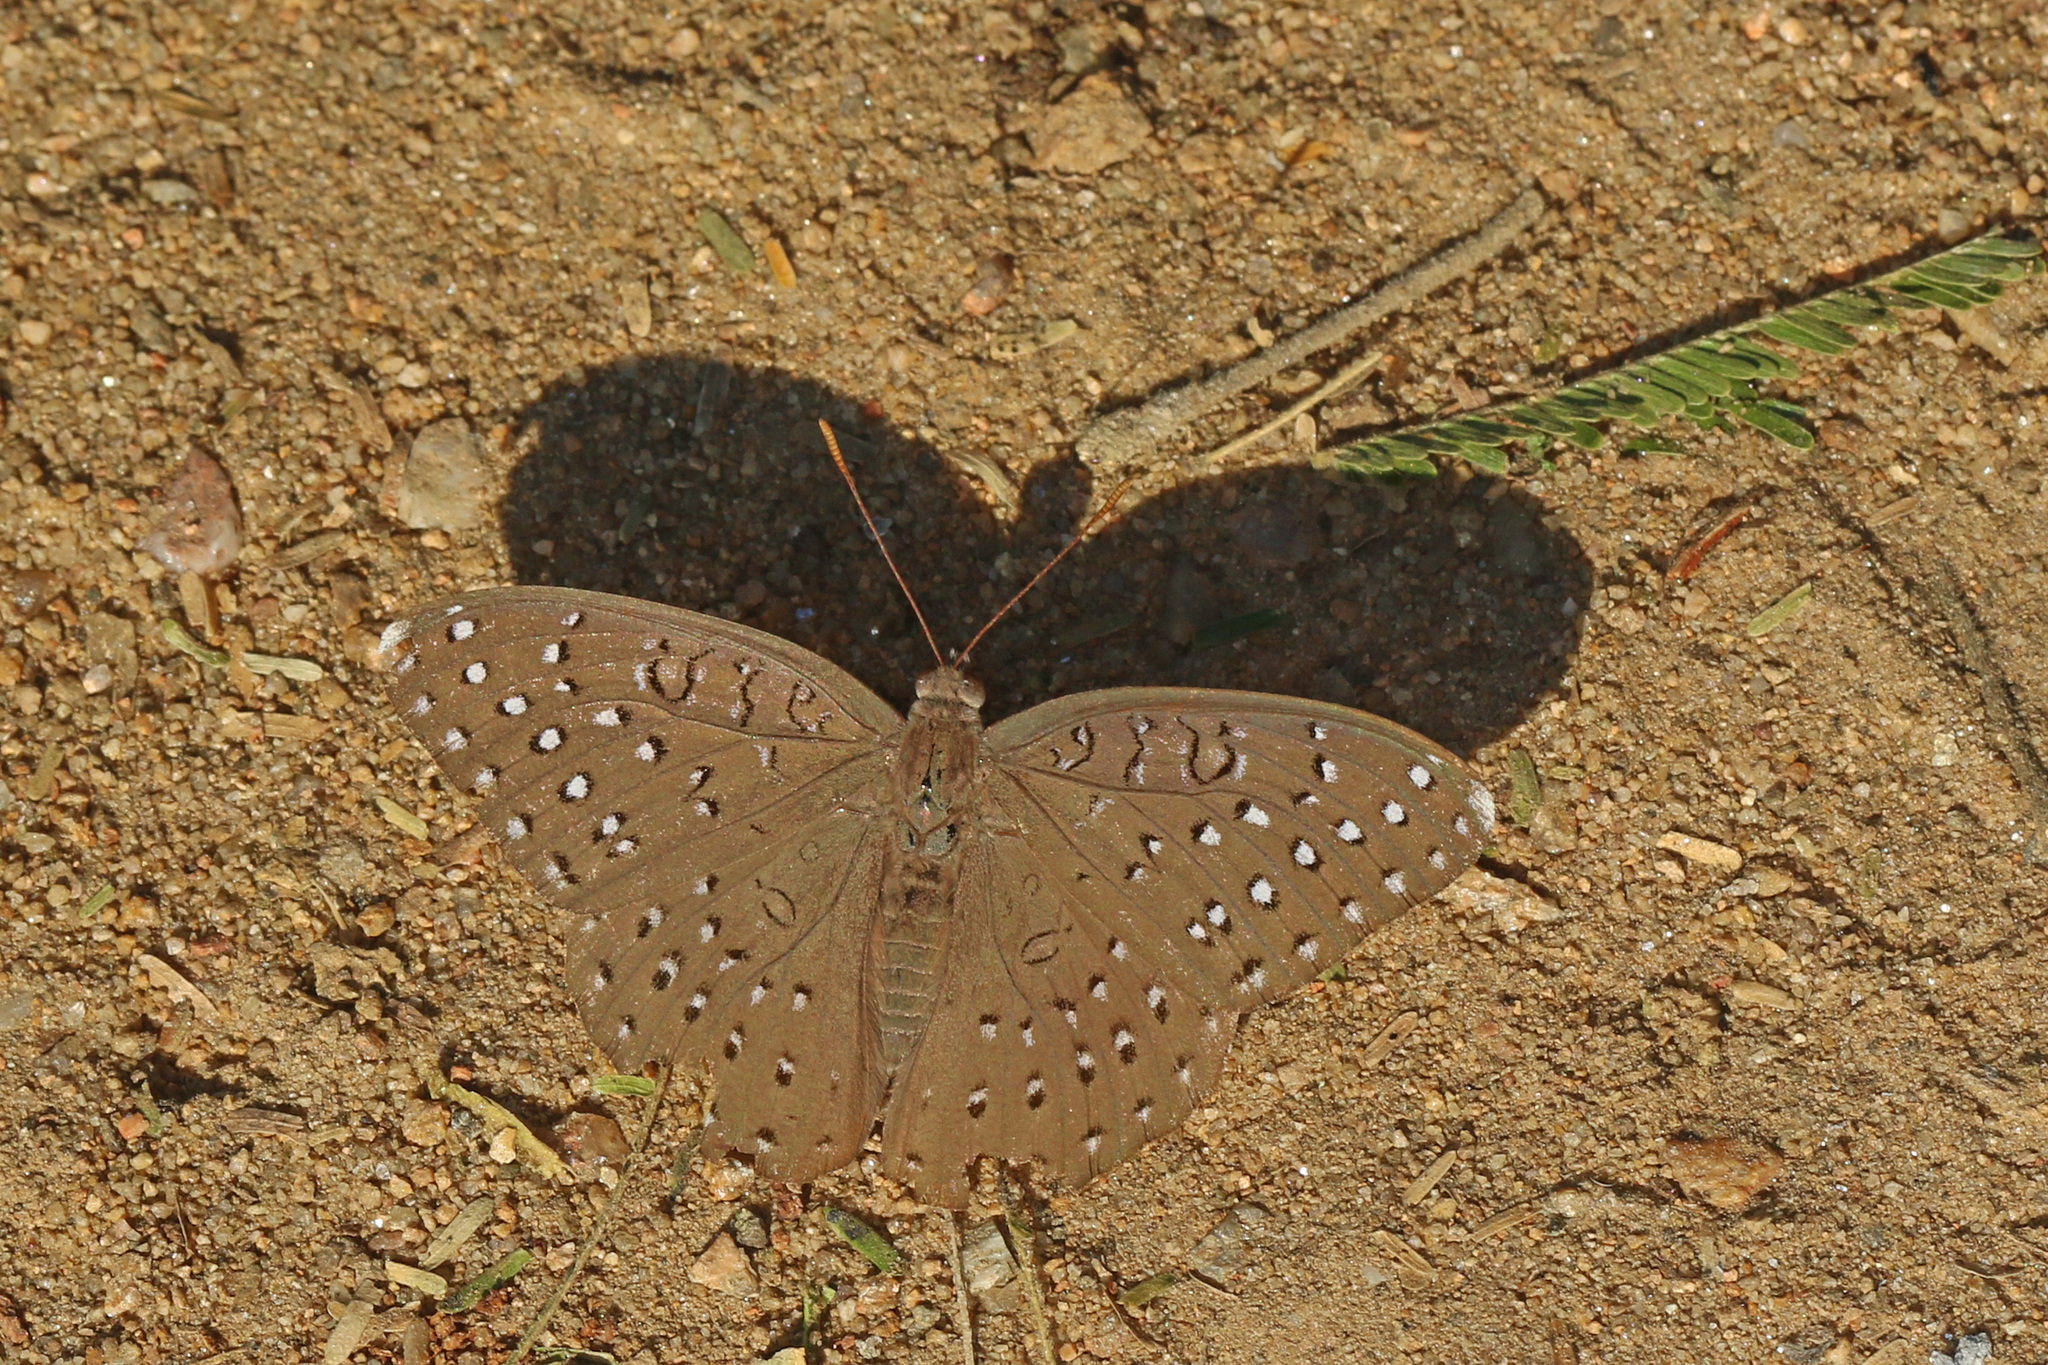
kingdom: Animalia
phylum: Arthropoda
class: Insecta
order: Lepidoptera
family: Nymphalidae
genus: Hamanumida
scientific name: Hamanumida daedalus
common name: Guinea-fowl butterfly
